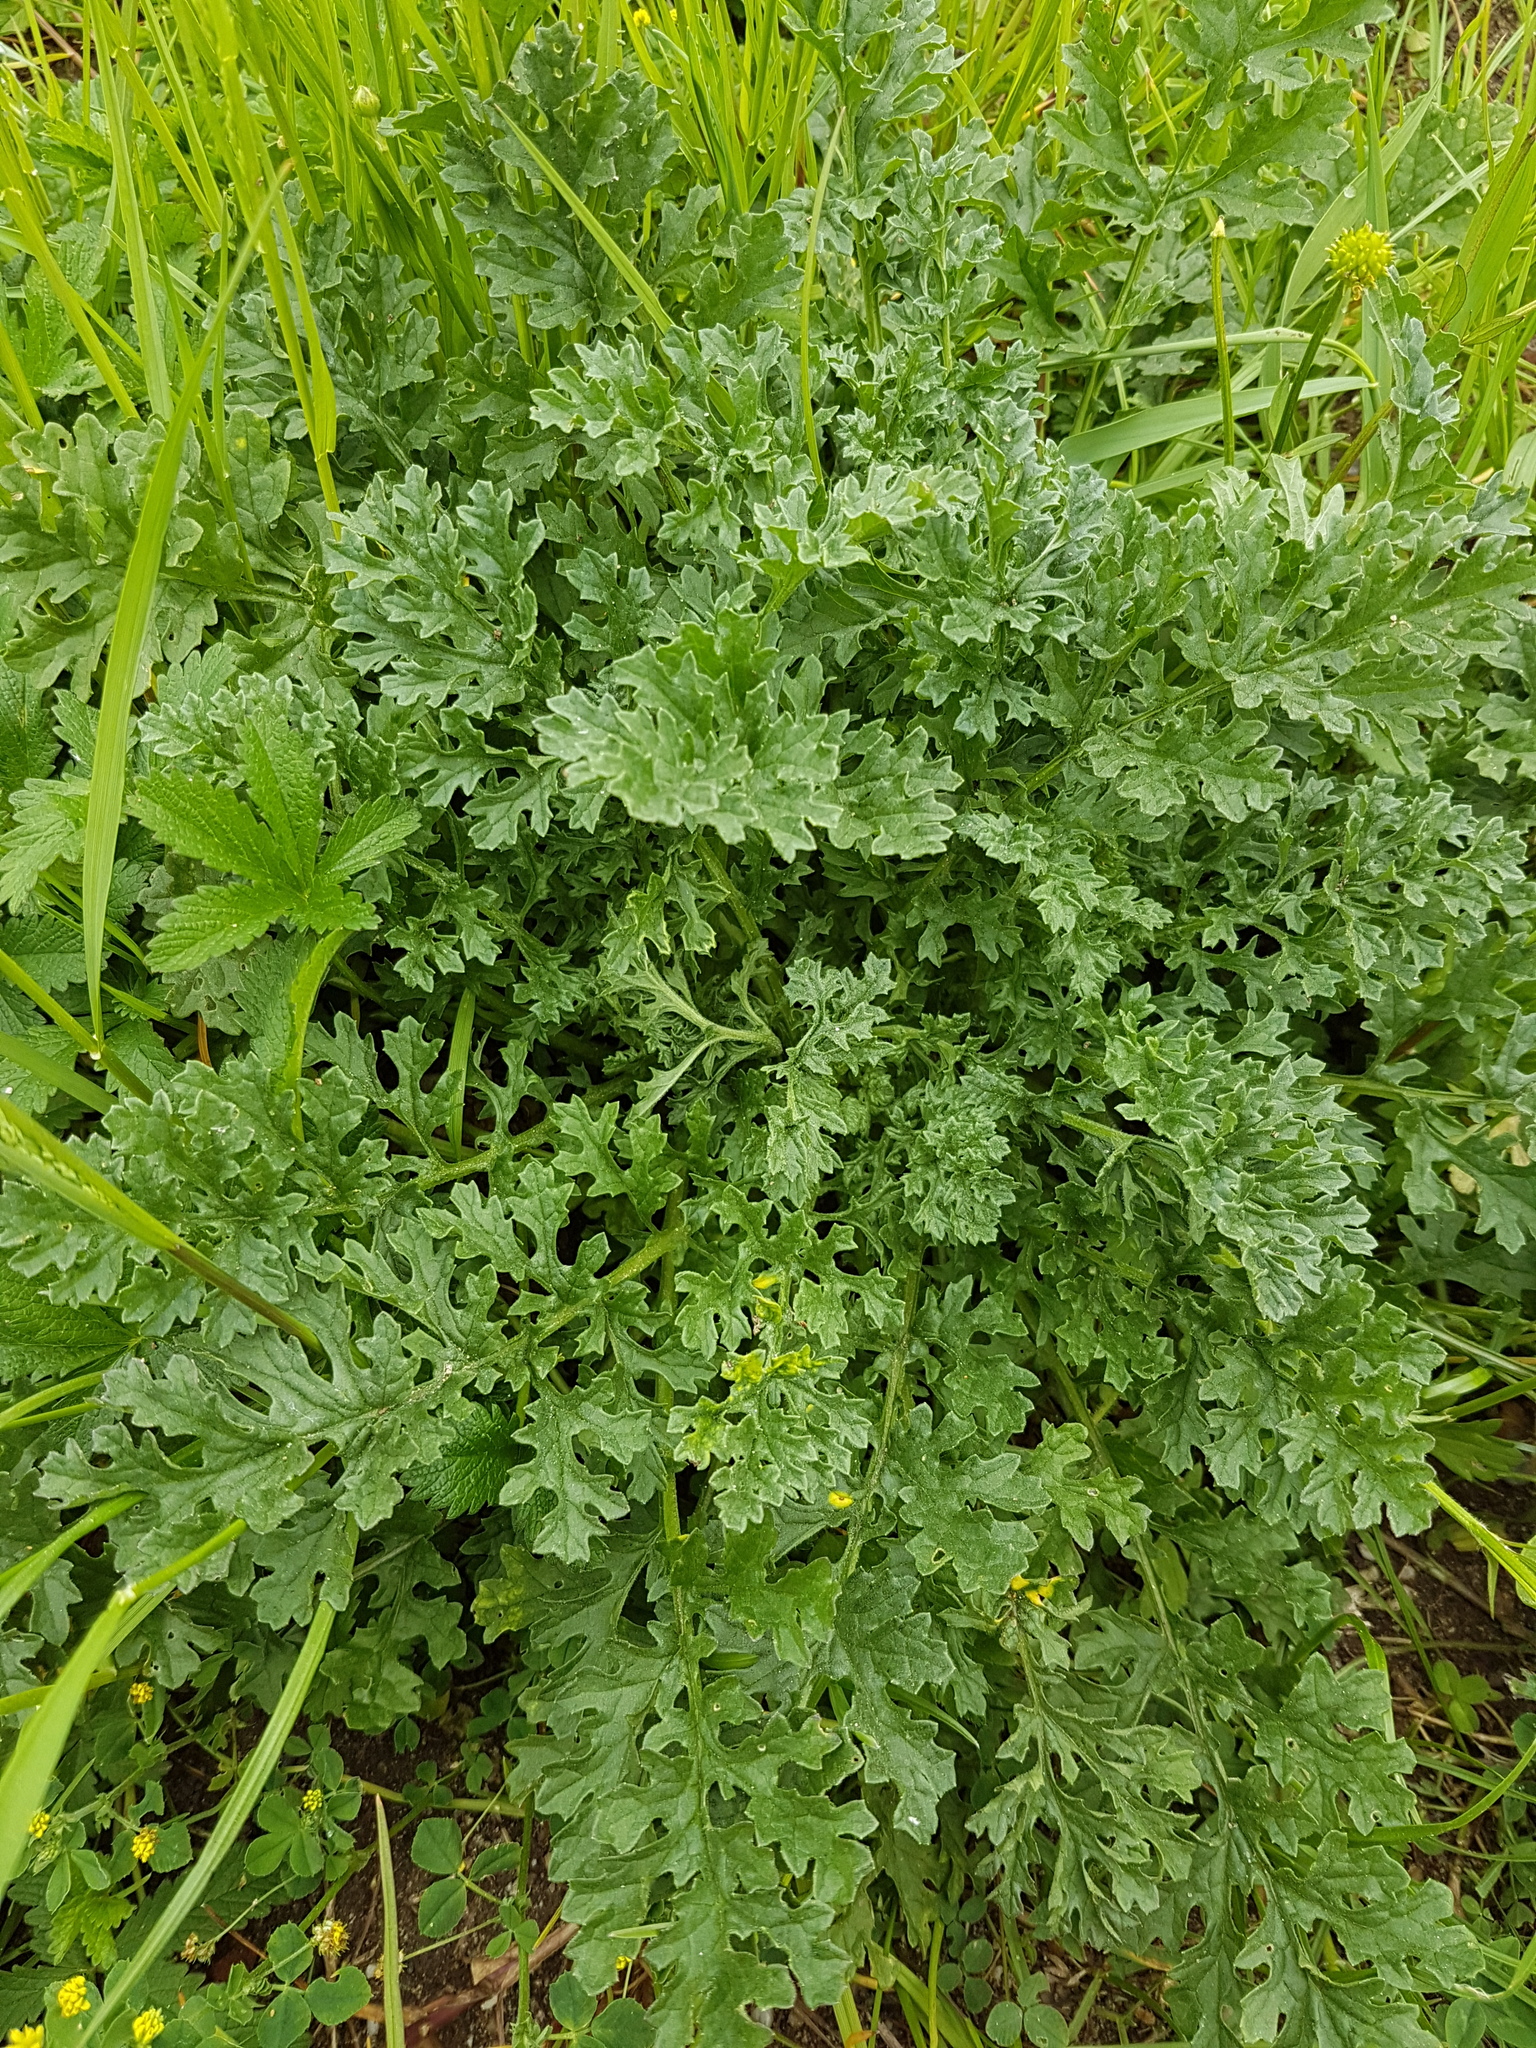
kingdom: Plantae
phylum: Tracheophyta
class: Magnoliopsida
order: Asterales
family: Asteraceae
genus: Jacobaea
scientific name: Jacobaea vulgaris
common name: Stinking willie
